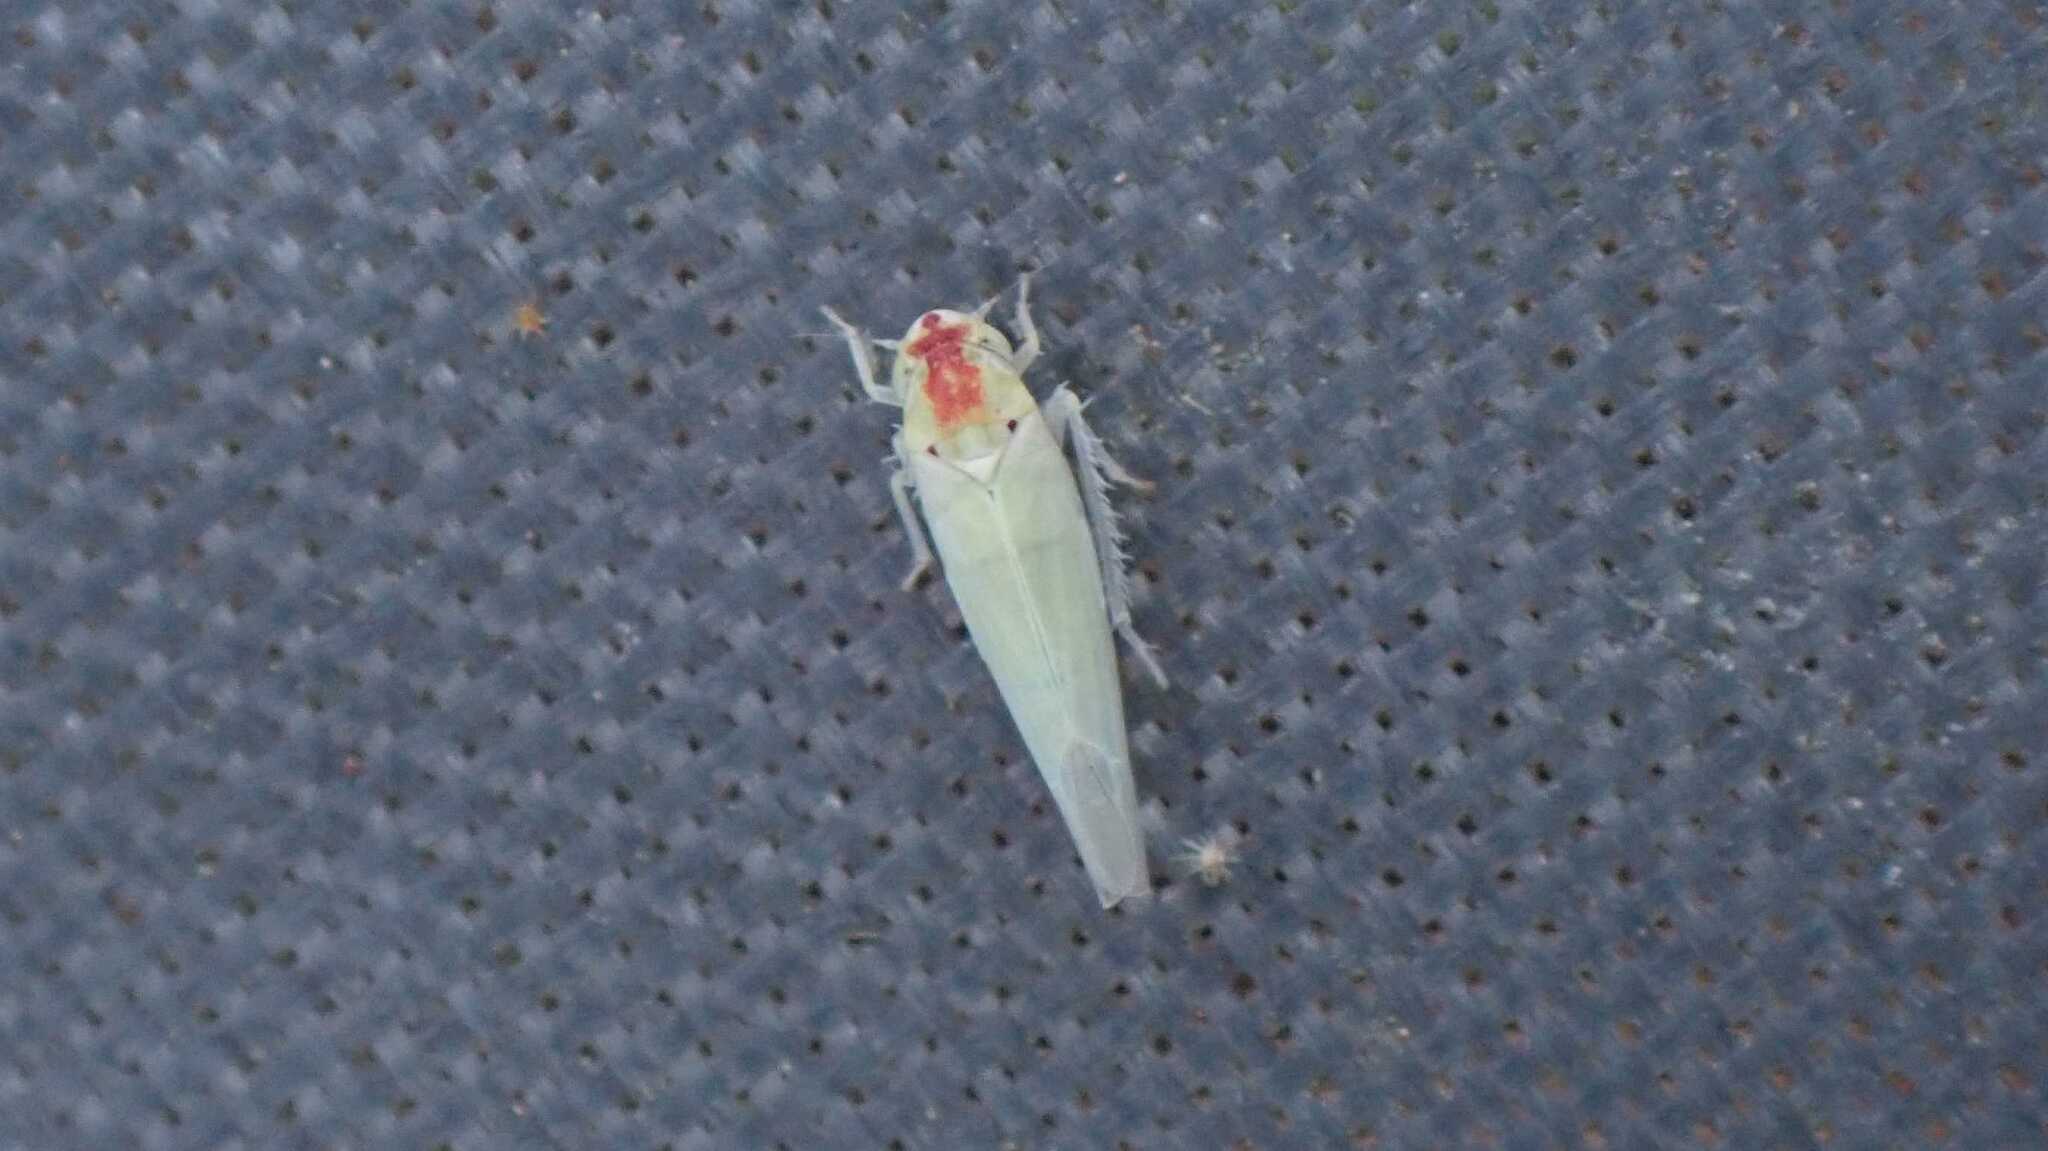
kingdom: Animalia
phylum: Arthropoda
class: Insecta
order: Hemiptera
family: Cicadellidae
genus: Zygina
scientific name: Zygina nivea
